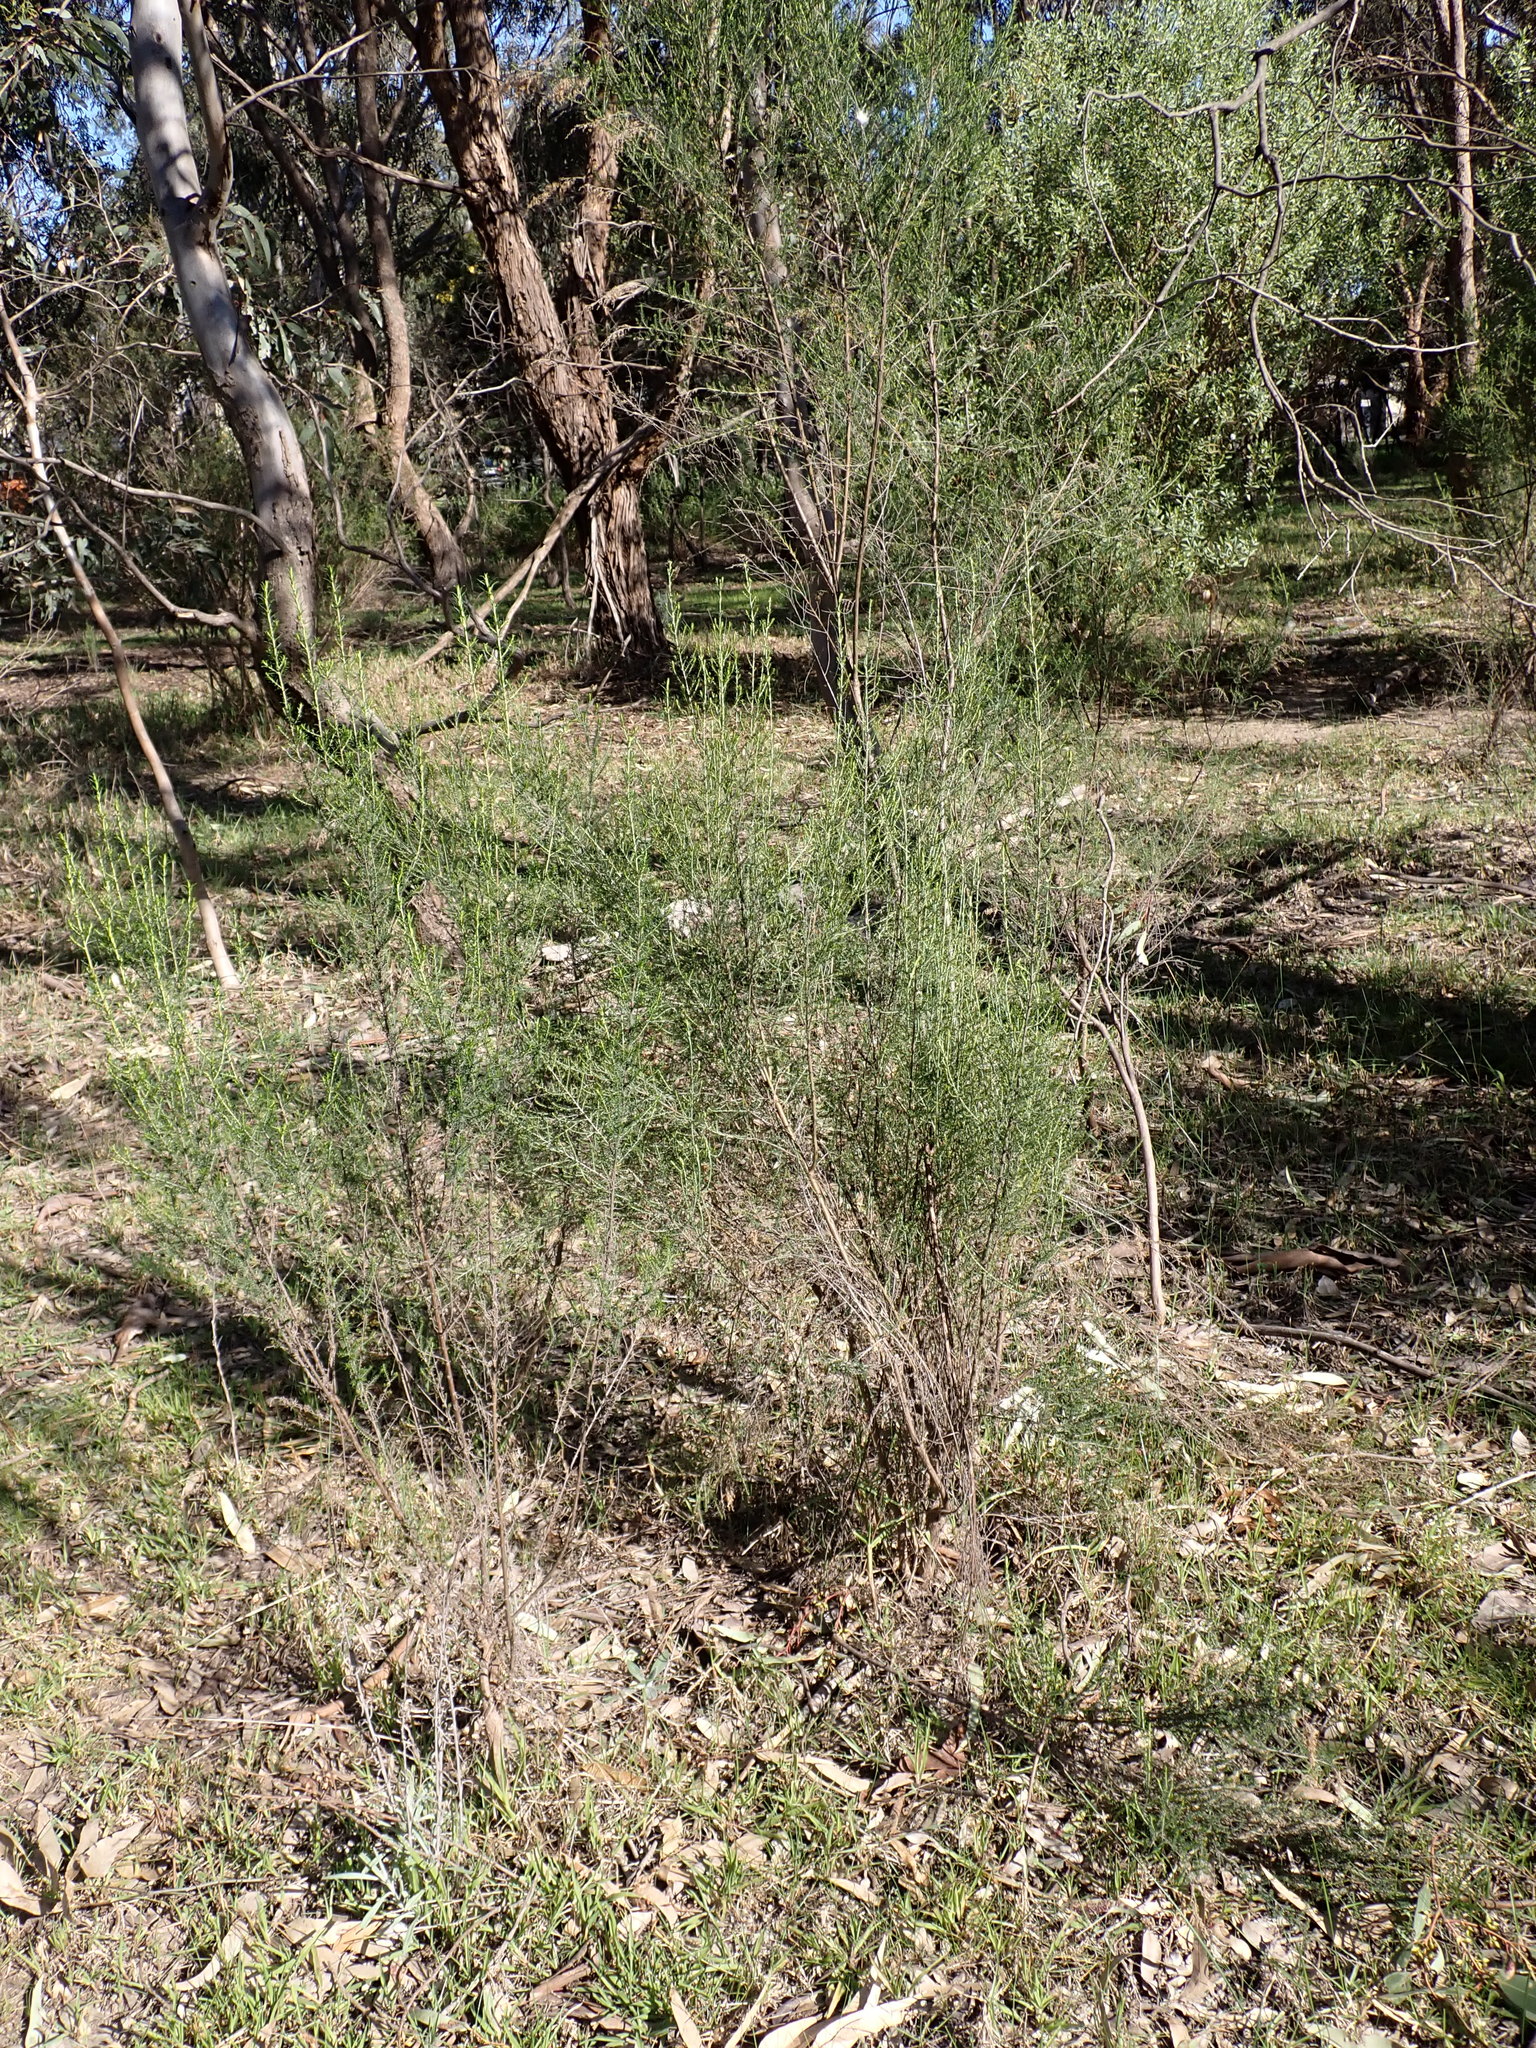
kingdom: Plantae
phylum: Tracheophyta
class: Magnoliopsida
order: Asterales
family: Asteraceae
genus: Cassinia
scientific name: Cassinia sifton
